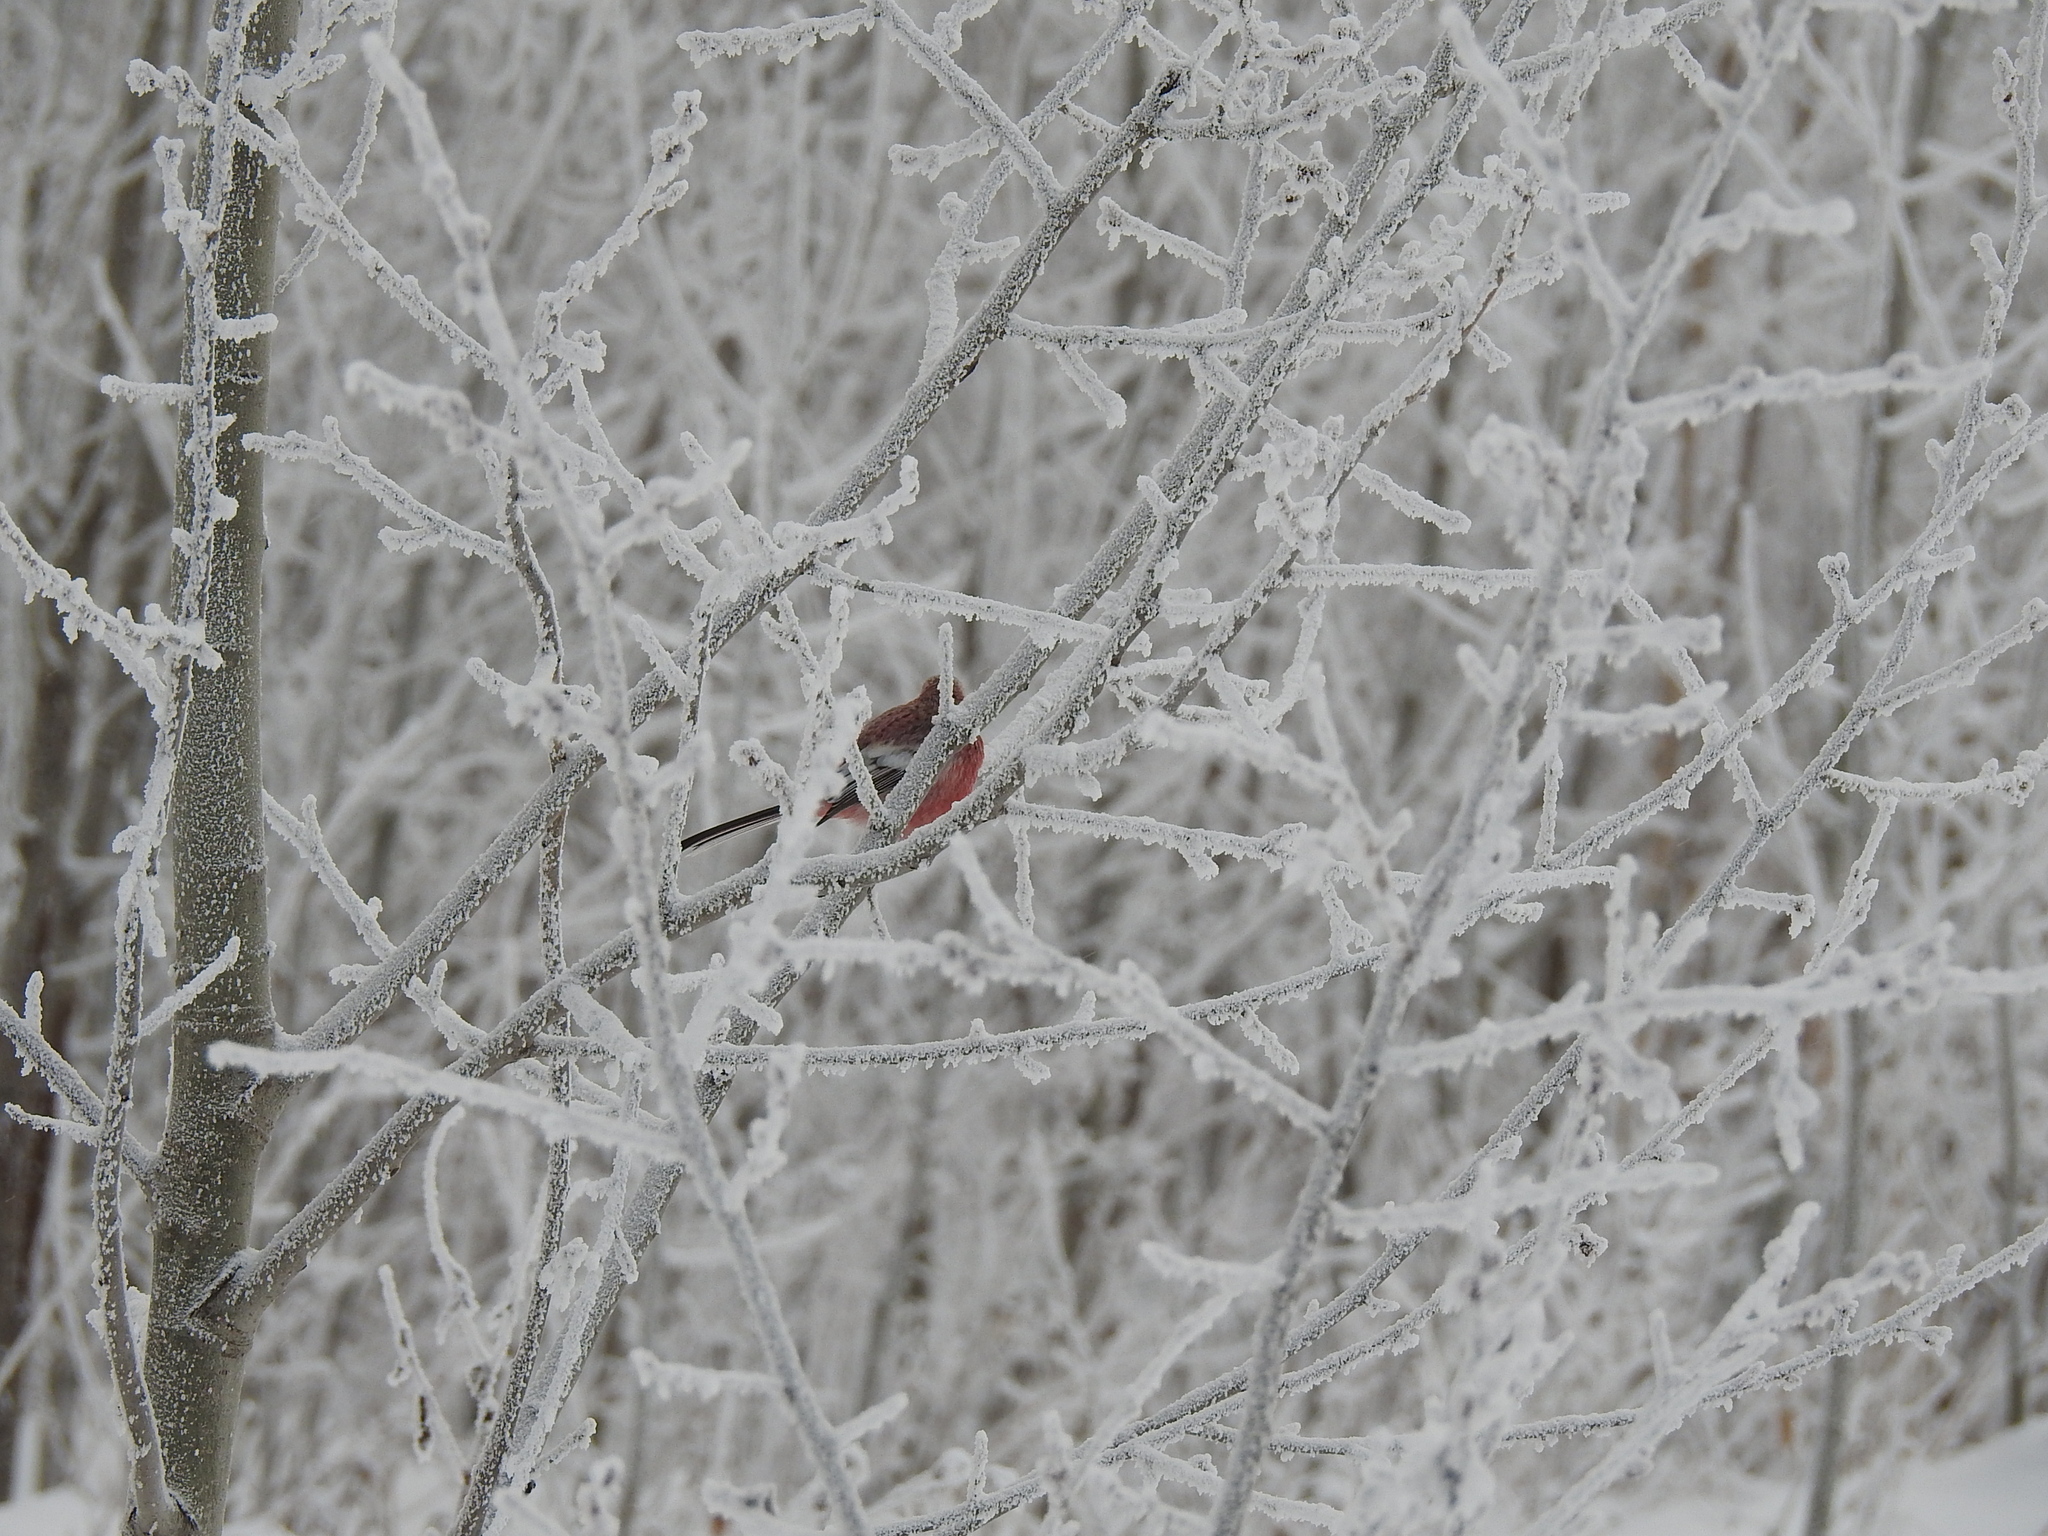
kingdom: Animalia
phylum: Chordata
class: Aves
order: Passeriformes
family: Fringillidae
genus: Carpodacus
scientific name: Carpodacus sibiricus
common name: Long-tailed rosefinch
